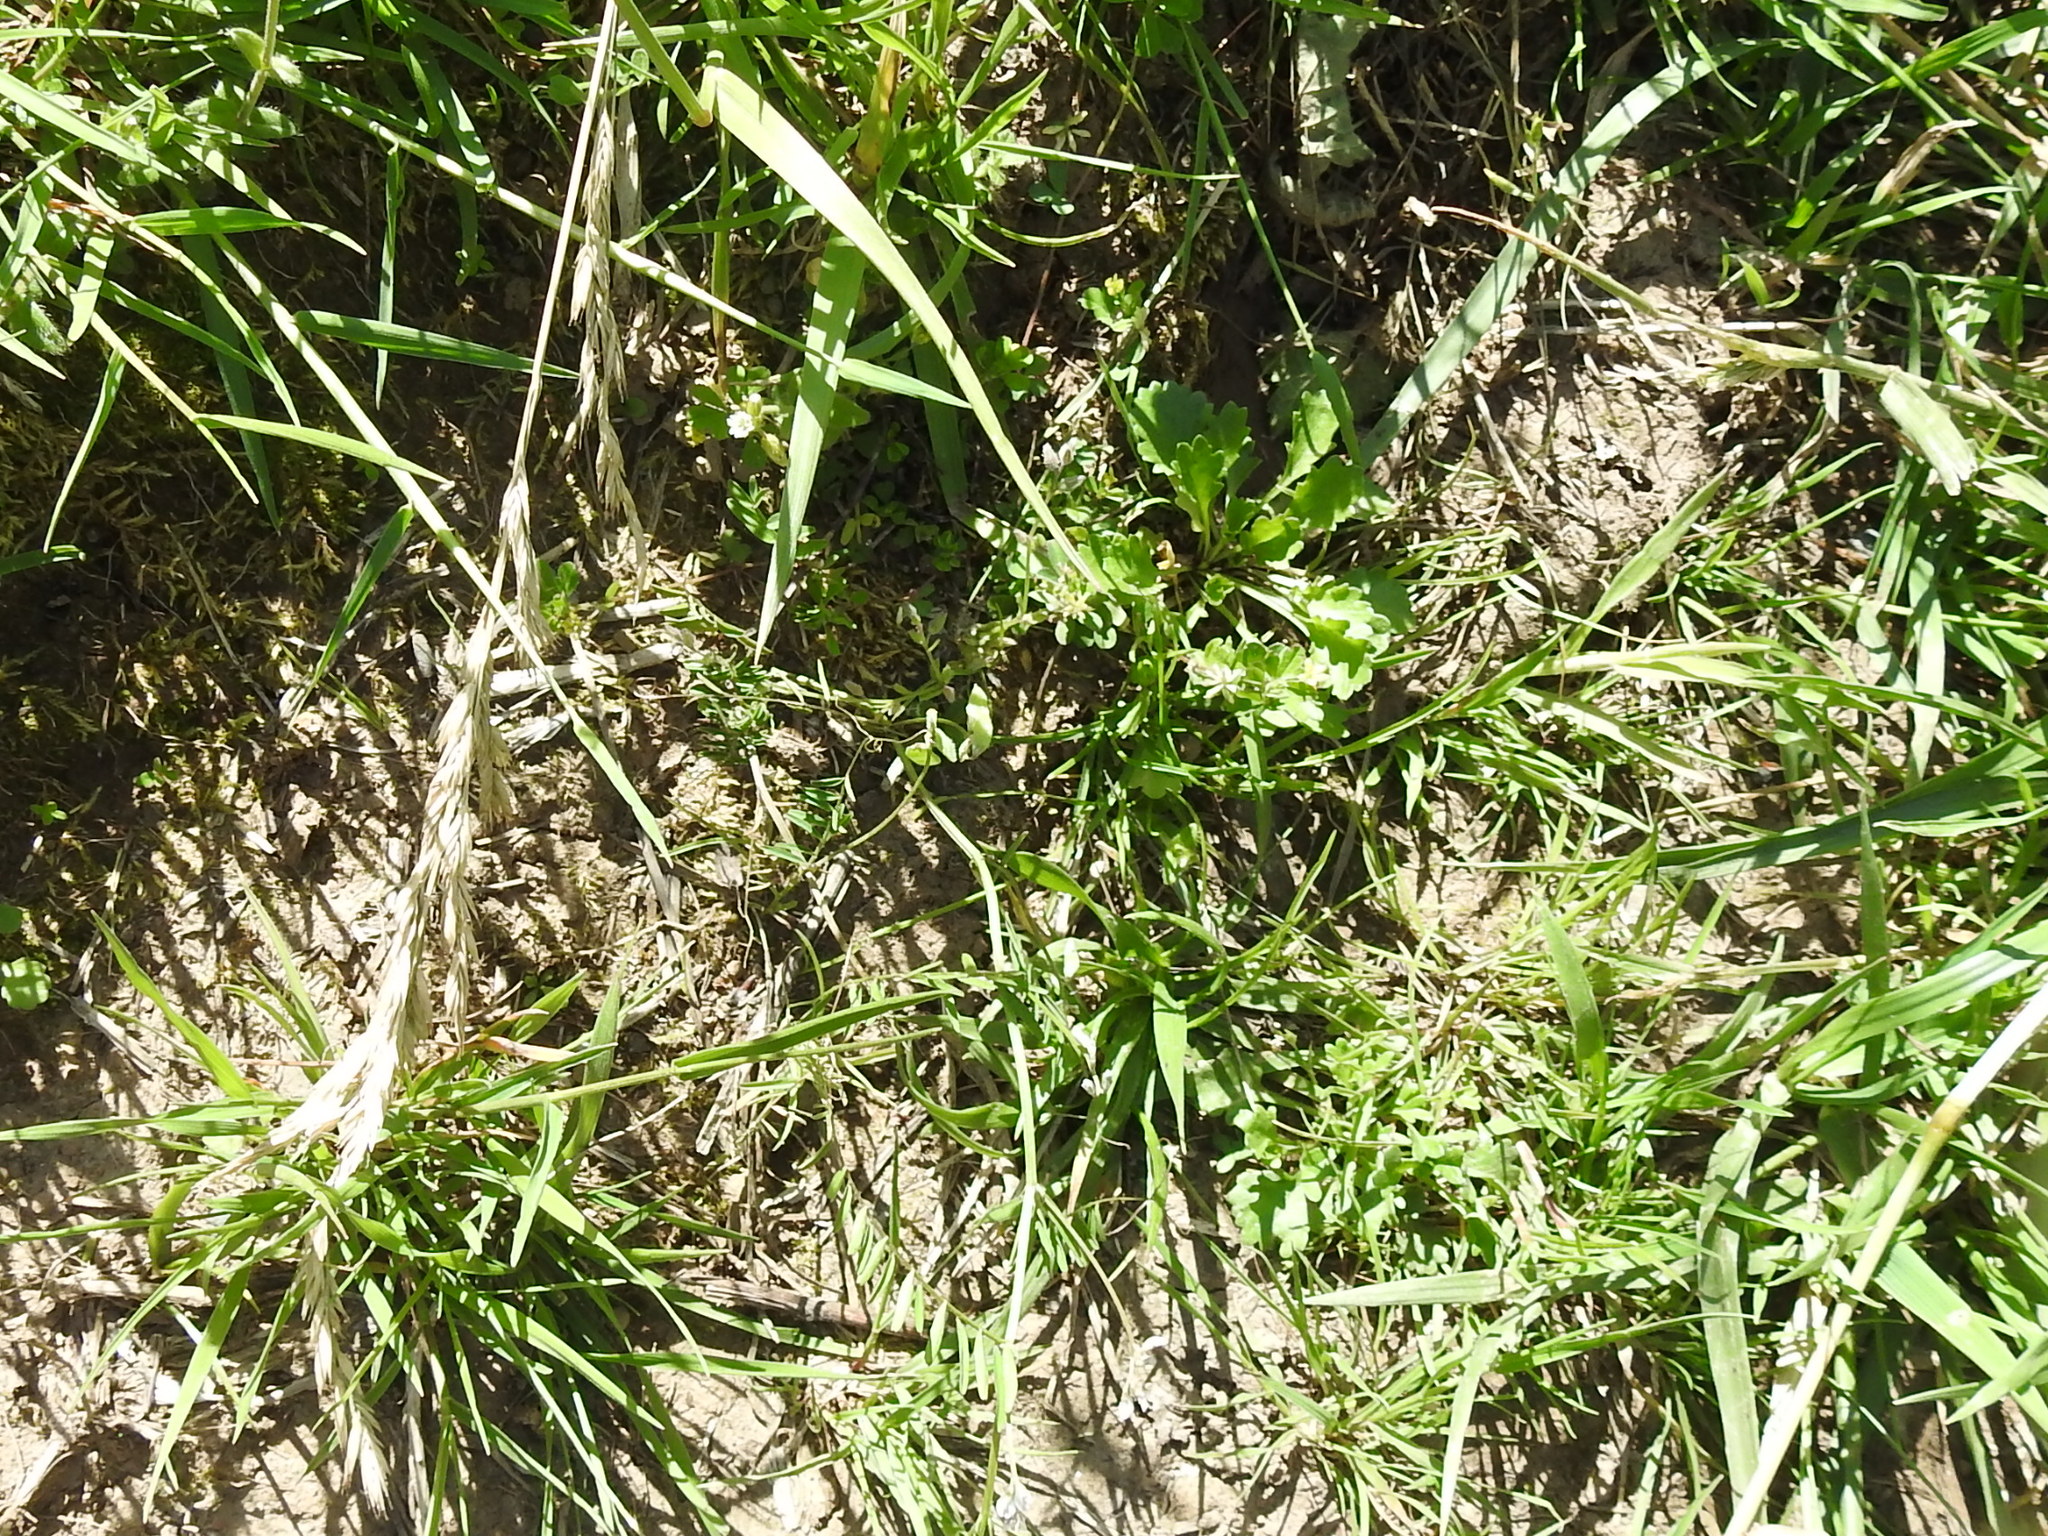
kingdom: Plantae
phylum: Tracheophyta
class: Magnoliopsida
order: Fabales
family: Fabaceae
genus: Vicia
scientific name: Vicia hirsuta
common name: Tiny vetch
